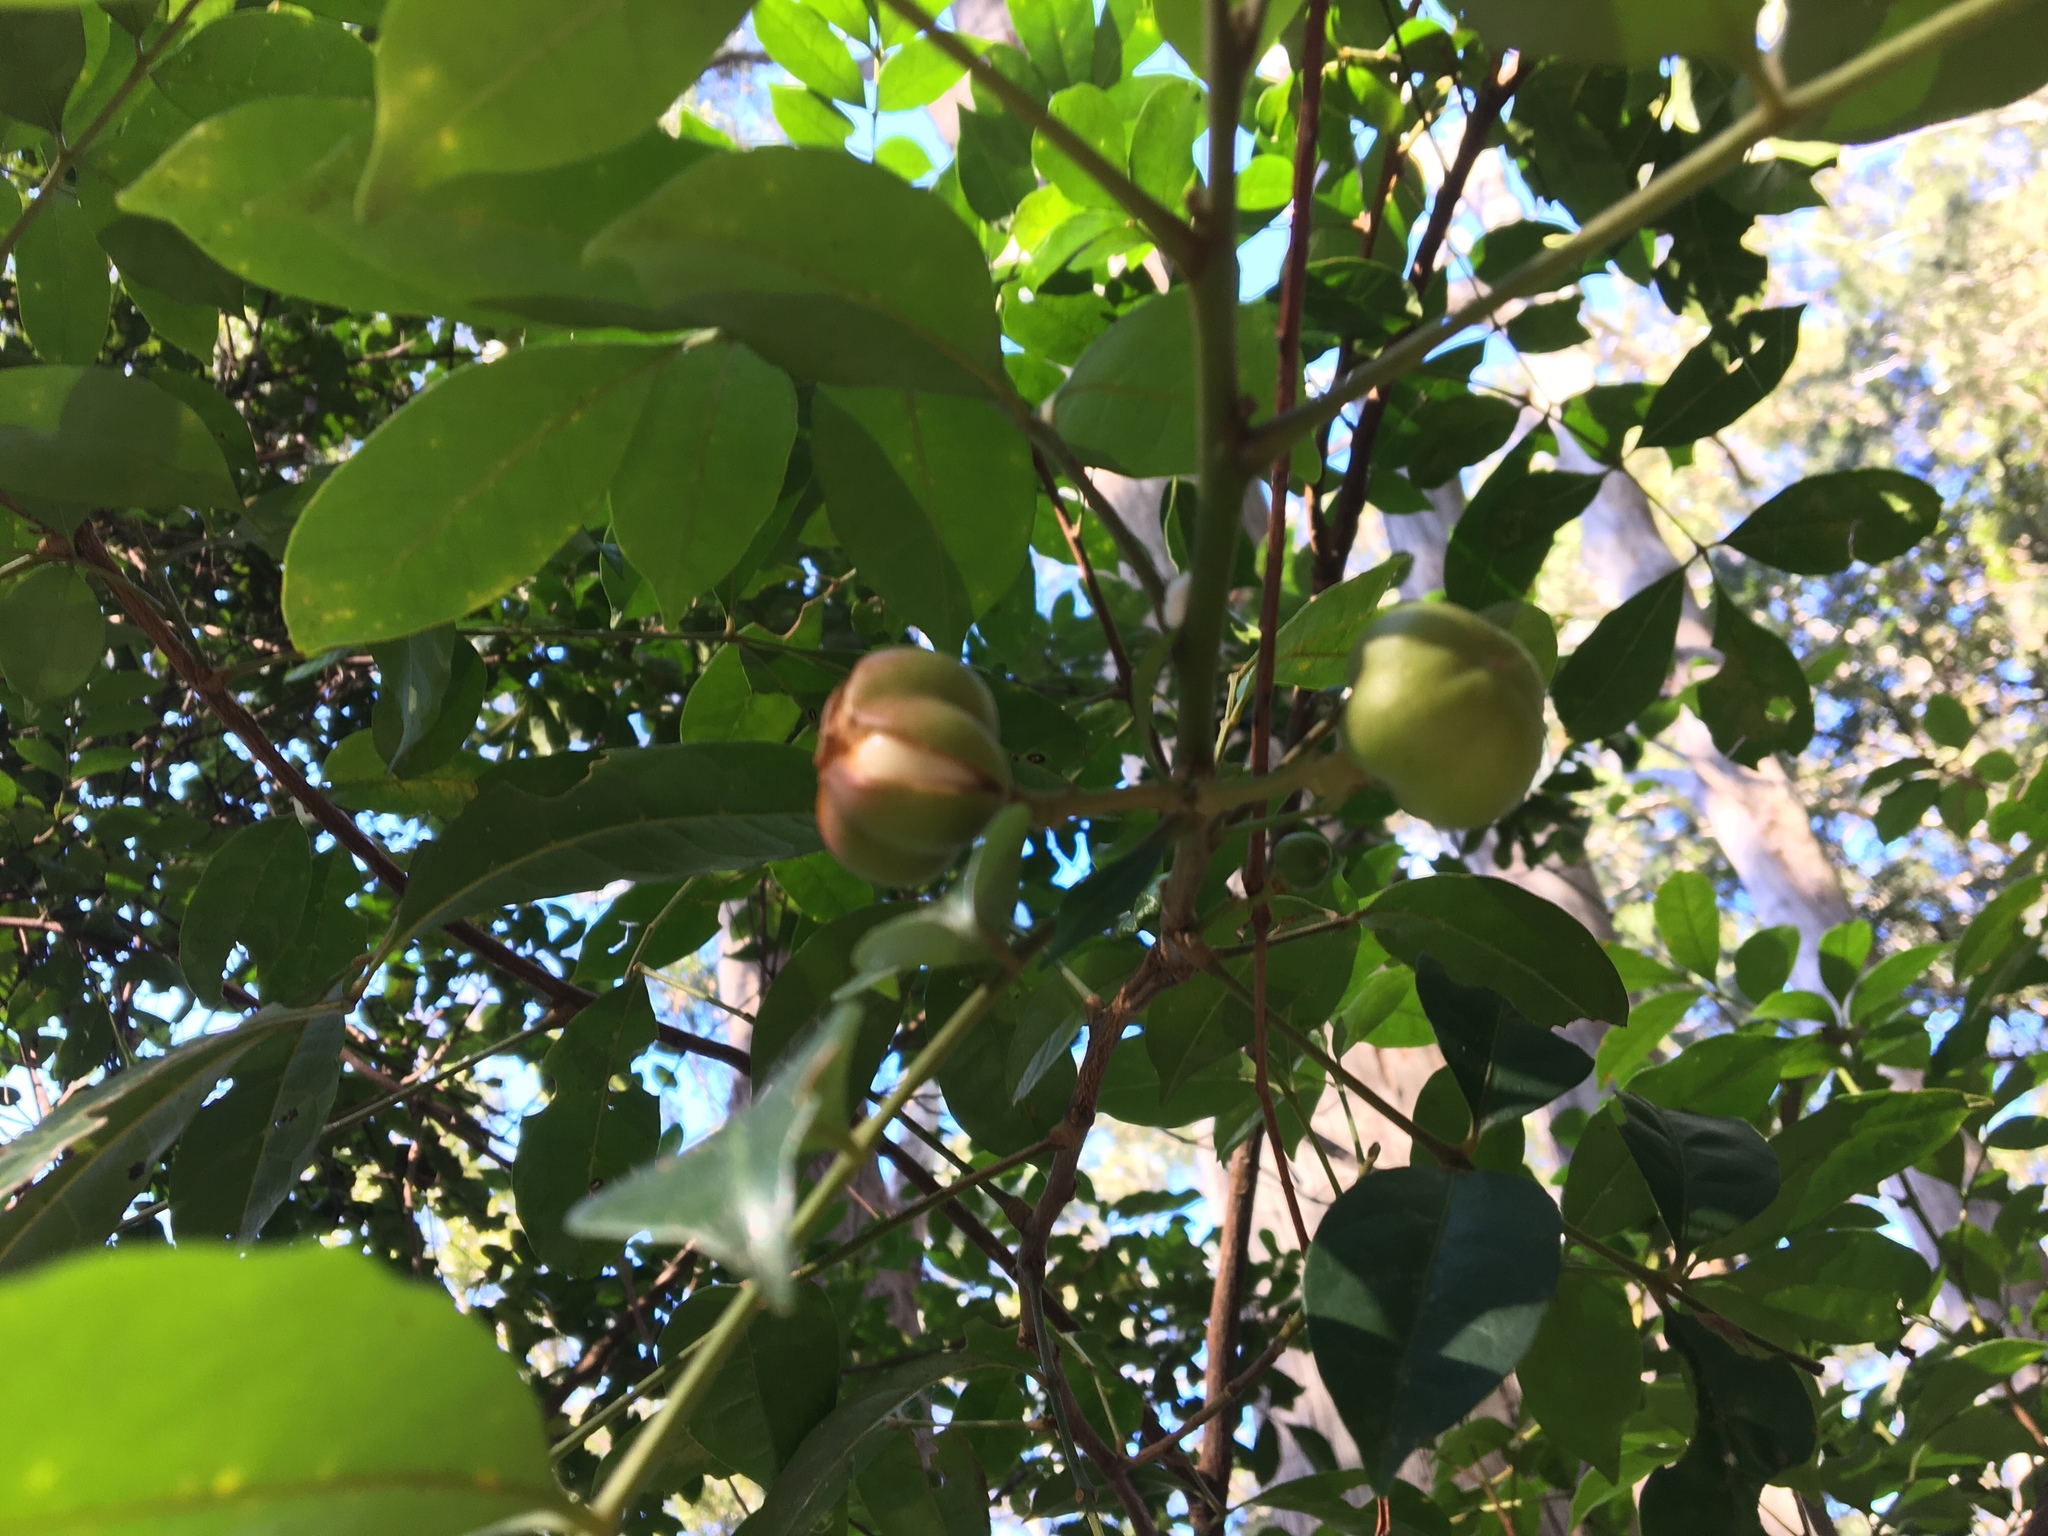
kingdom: Plantae
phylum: Tracheophyta
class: Magnoliopsida
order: Sapindales
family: Meliaceae
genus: Synoum
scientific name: Synoum glandulosum
